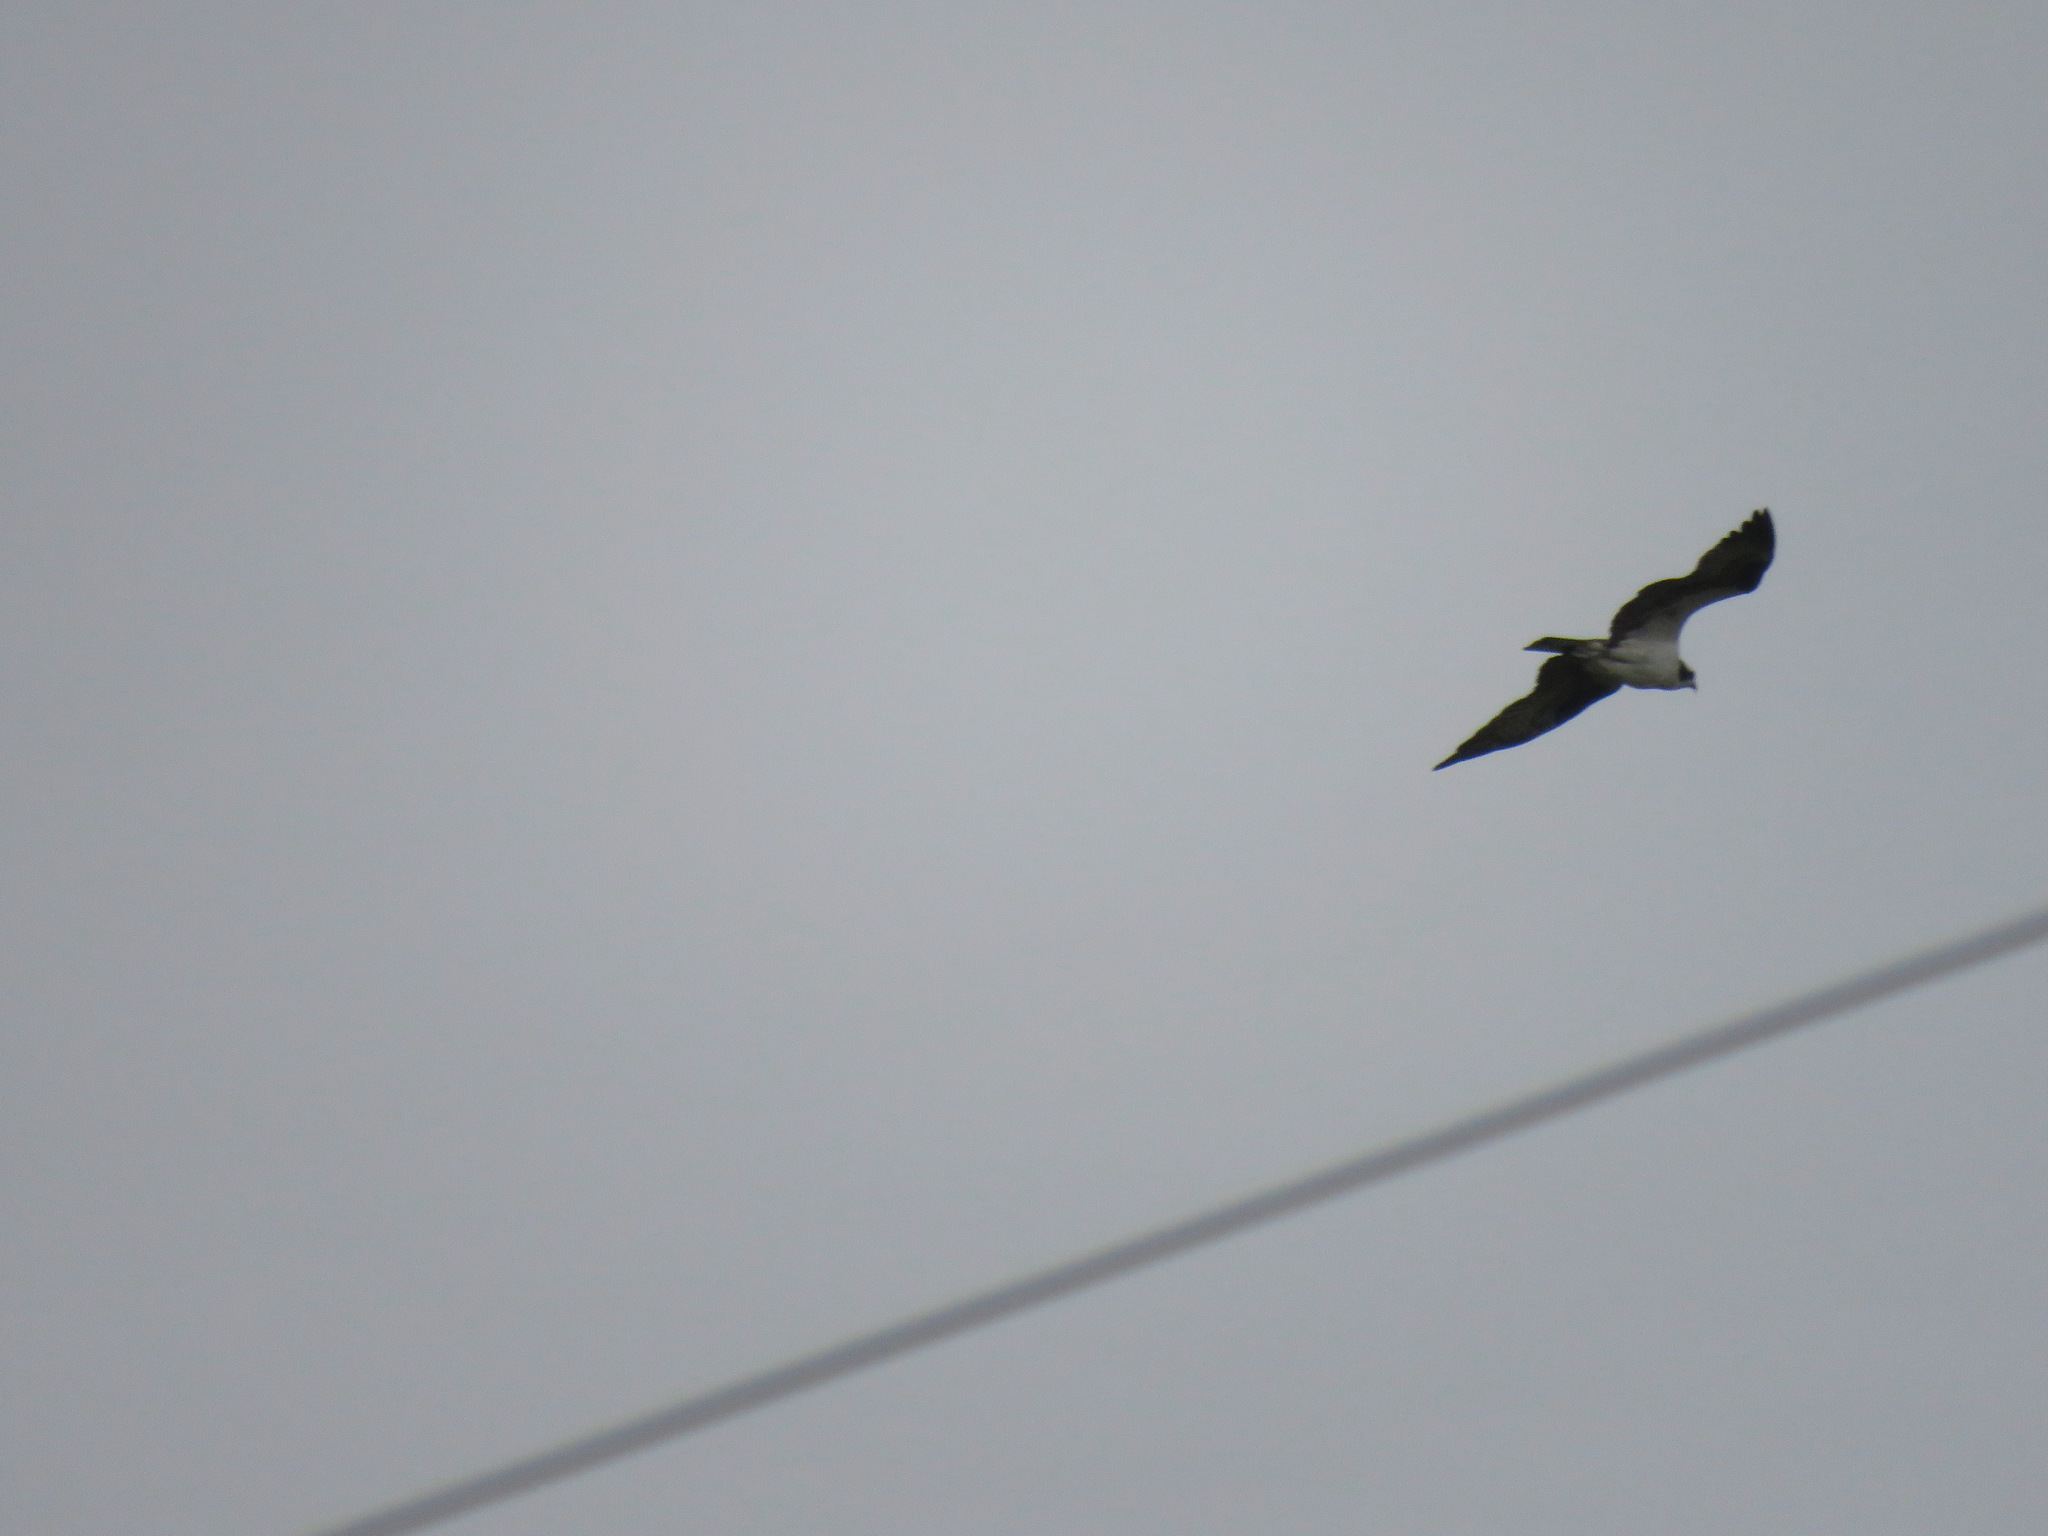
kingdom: Animalia
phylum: Chordata
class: Aves
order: Accipitriformes
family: Pandionidae
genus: Pandion
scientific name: Pandion haliaetus
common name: Osprey
